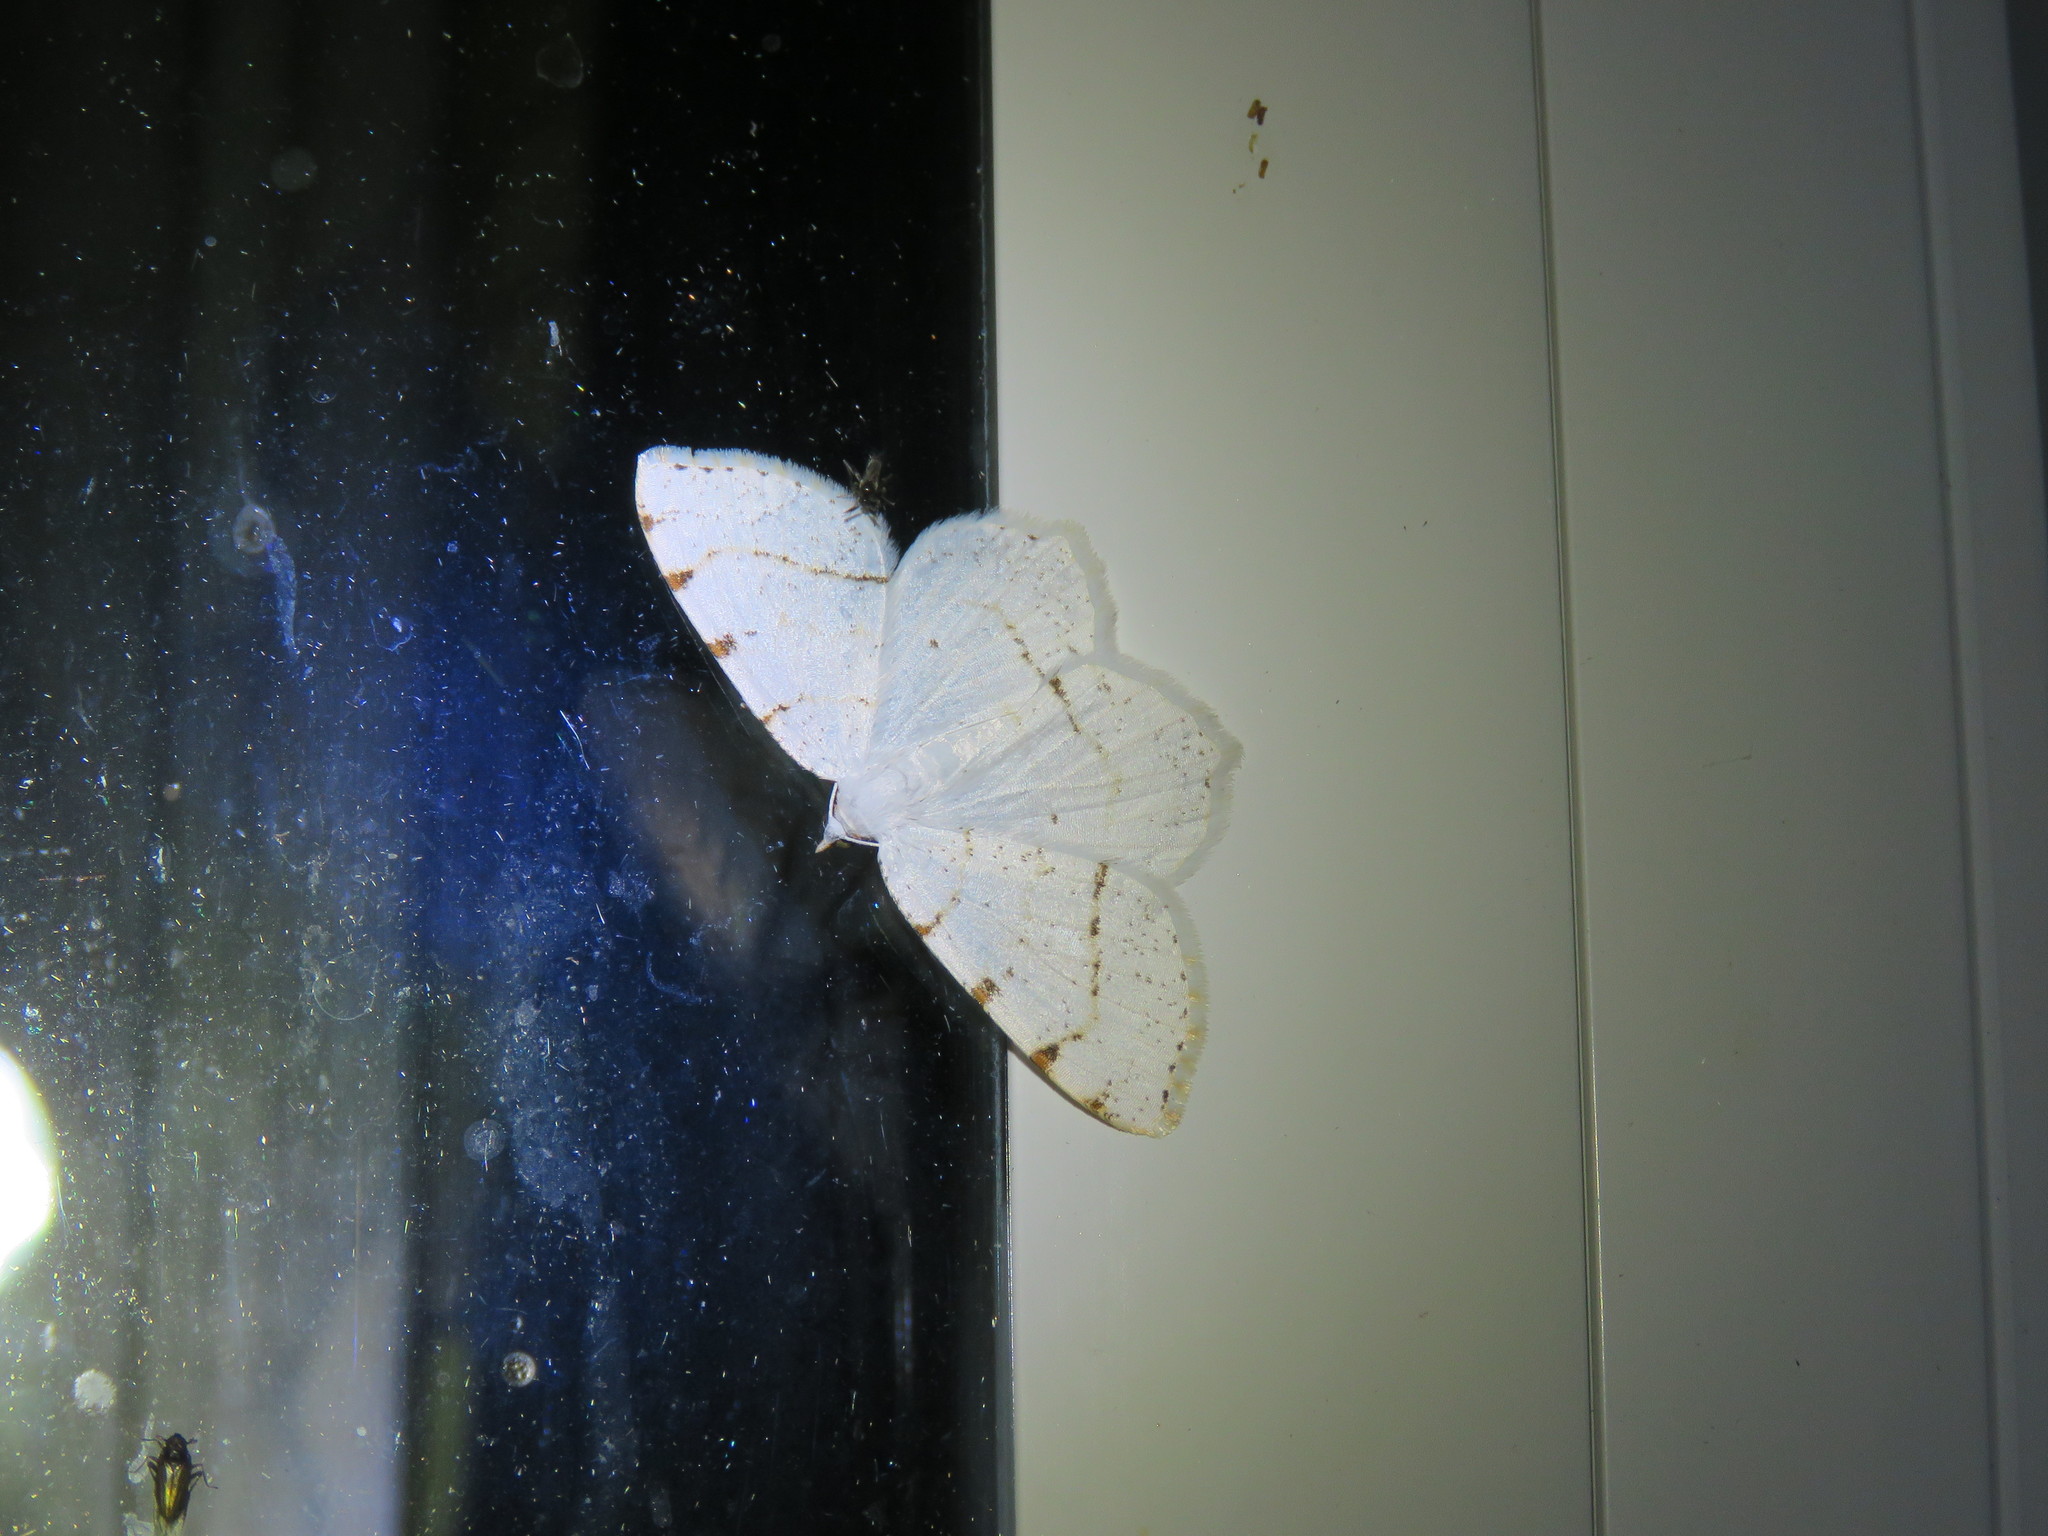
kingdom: Animalia
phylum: Arthropoda
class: Insecta
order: Lepidoptera
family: Geometridae
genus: Macaria
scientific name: Macaria pustularia
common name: Lesser maple spanworm moth
